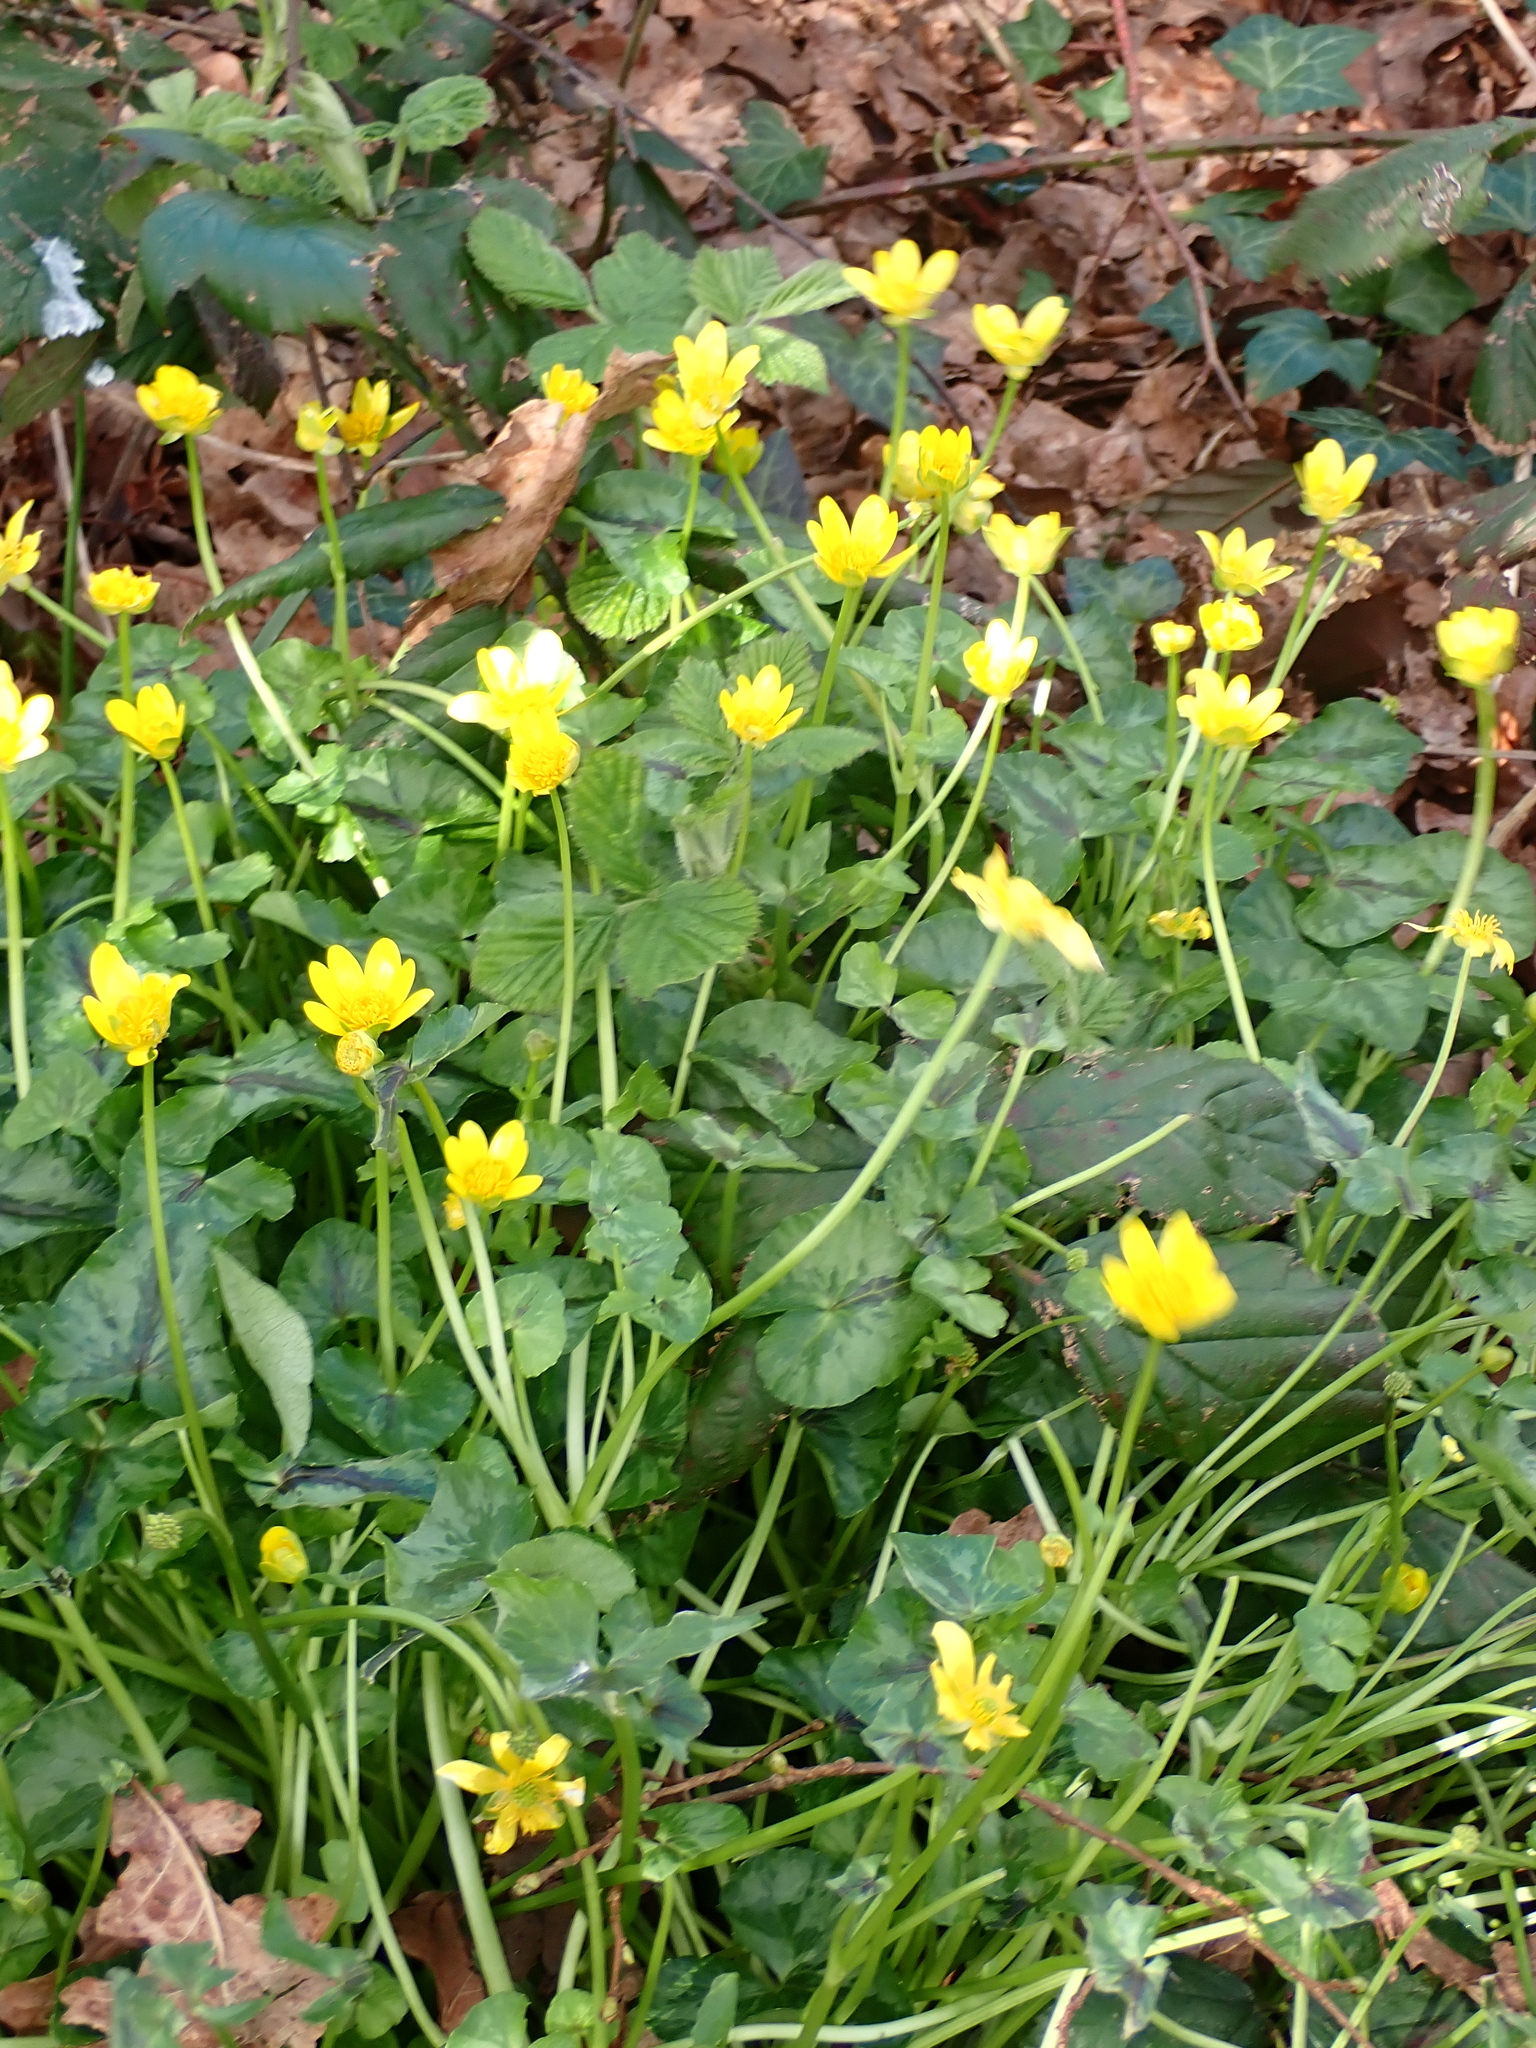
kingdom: Plantae
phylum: Tracheophyta
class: Magnoliopsida
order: Ranunculales
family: Ranunculaceae
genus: Ficaria
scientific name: Ficaria verna
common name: Lesser celandine
